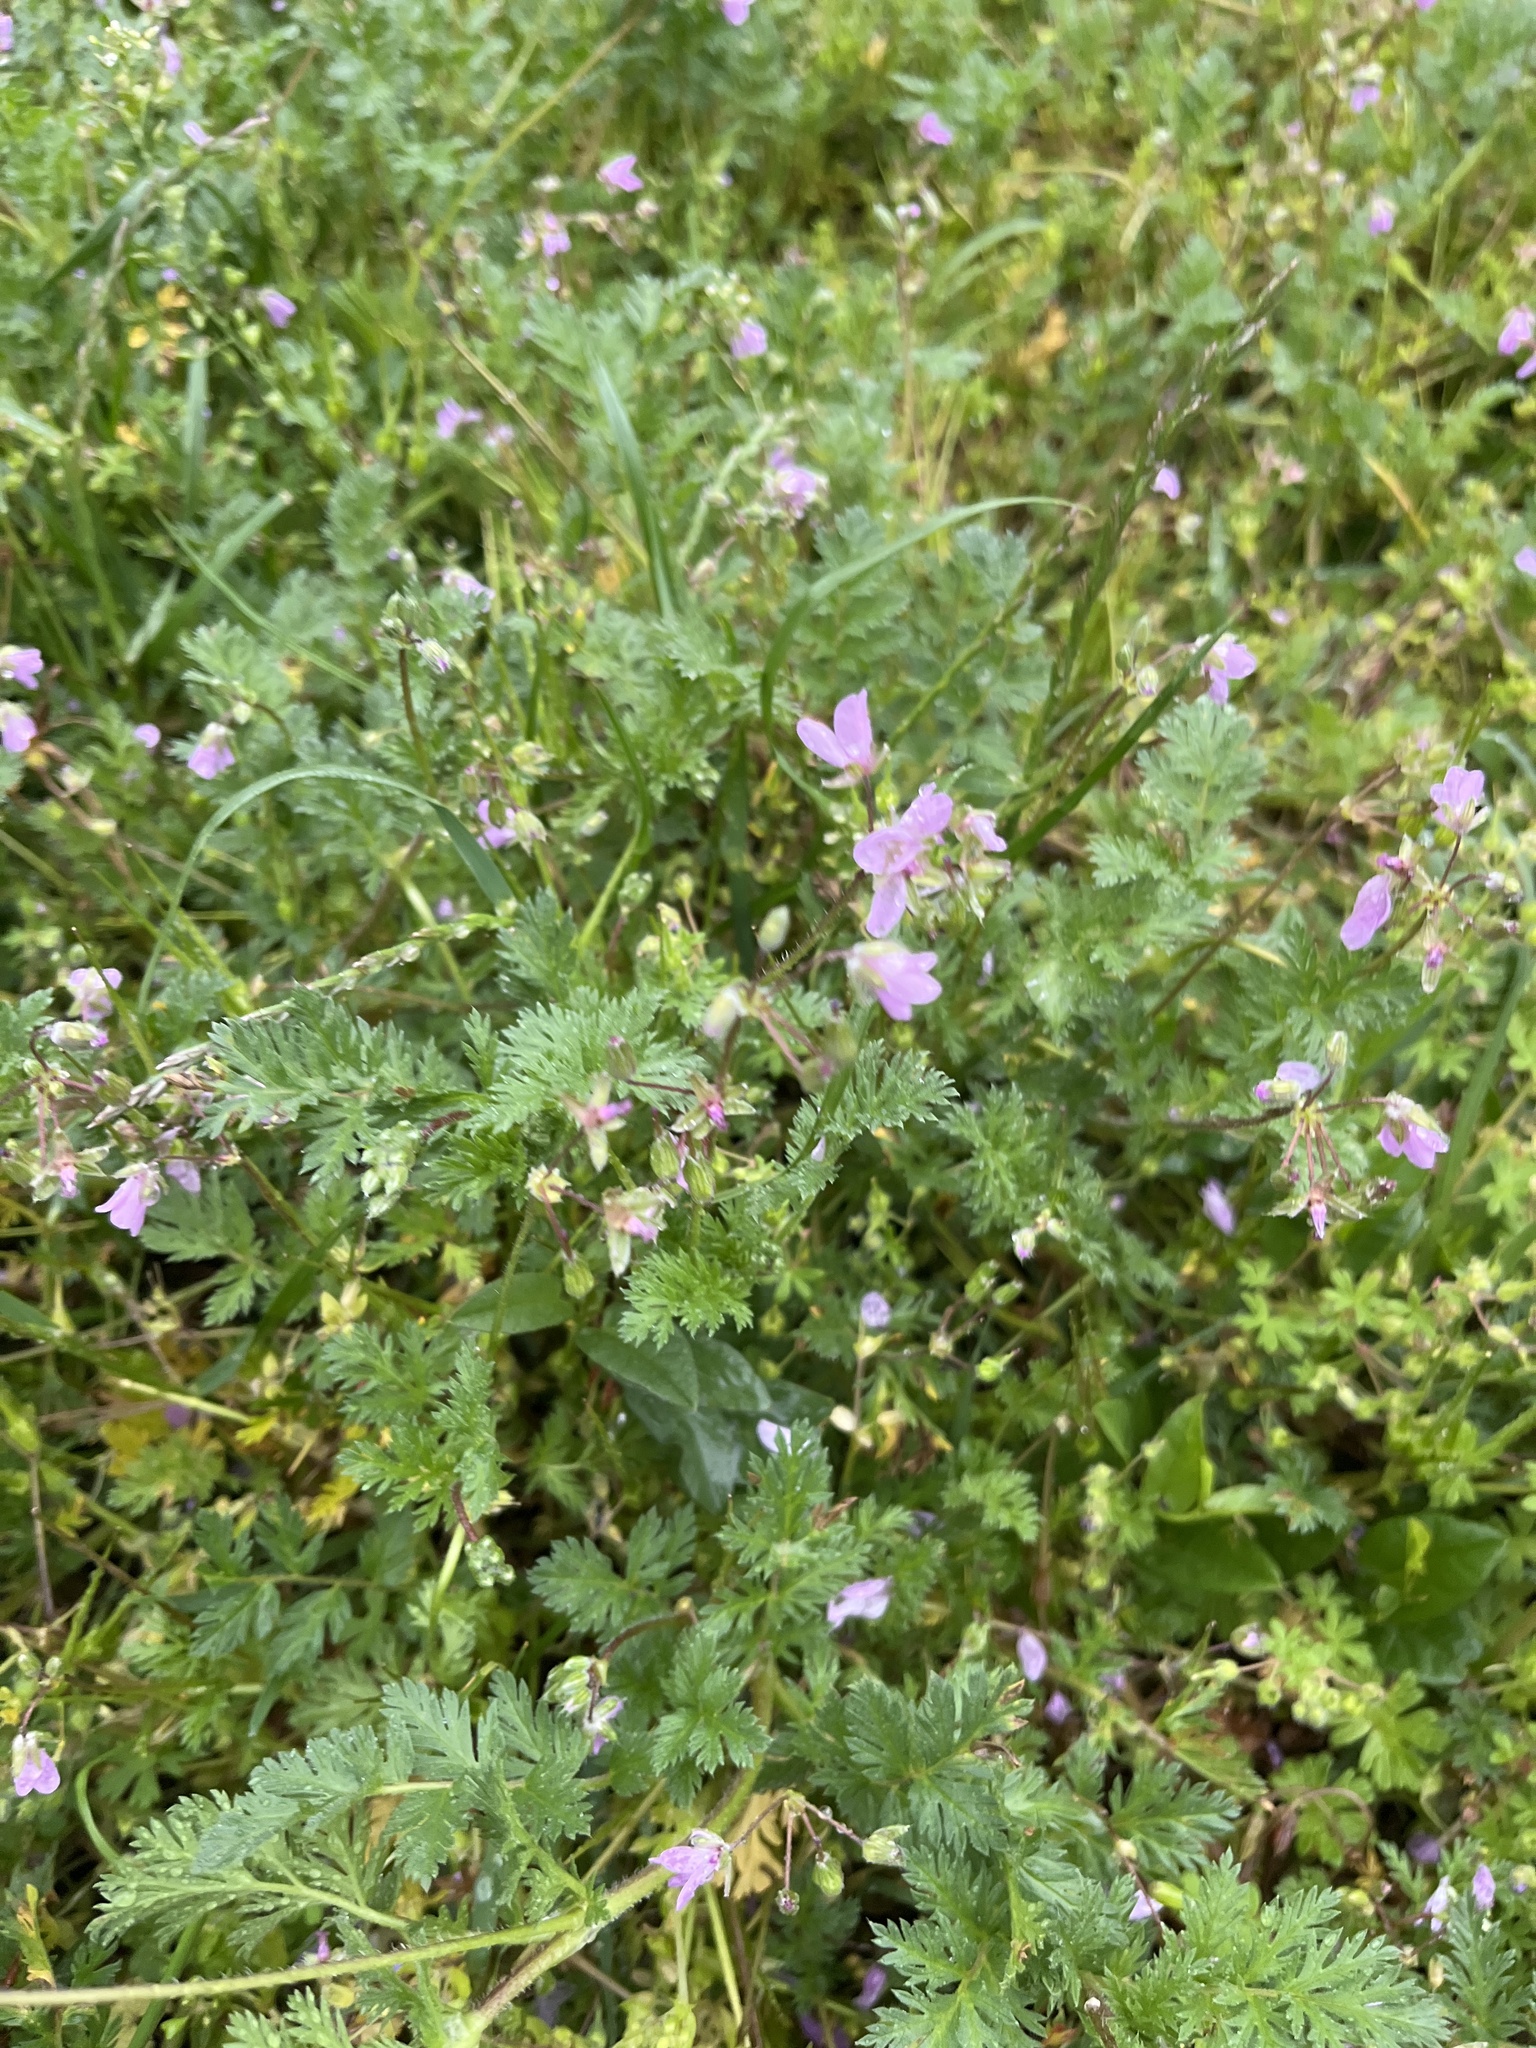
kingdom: Plantae
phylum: Tracheophyta
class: Magnoliopsida
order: Geraniales
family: Geraniaceae
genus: Erodium
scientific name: Erodium cicutarium
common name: Common stork's-bill
